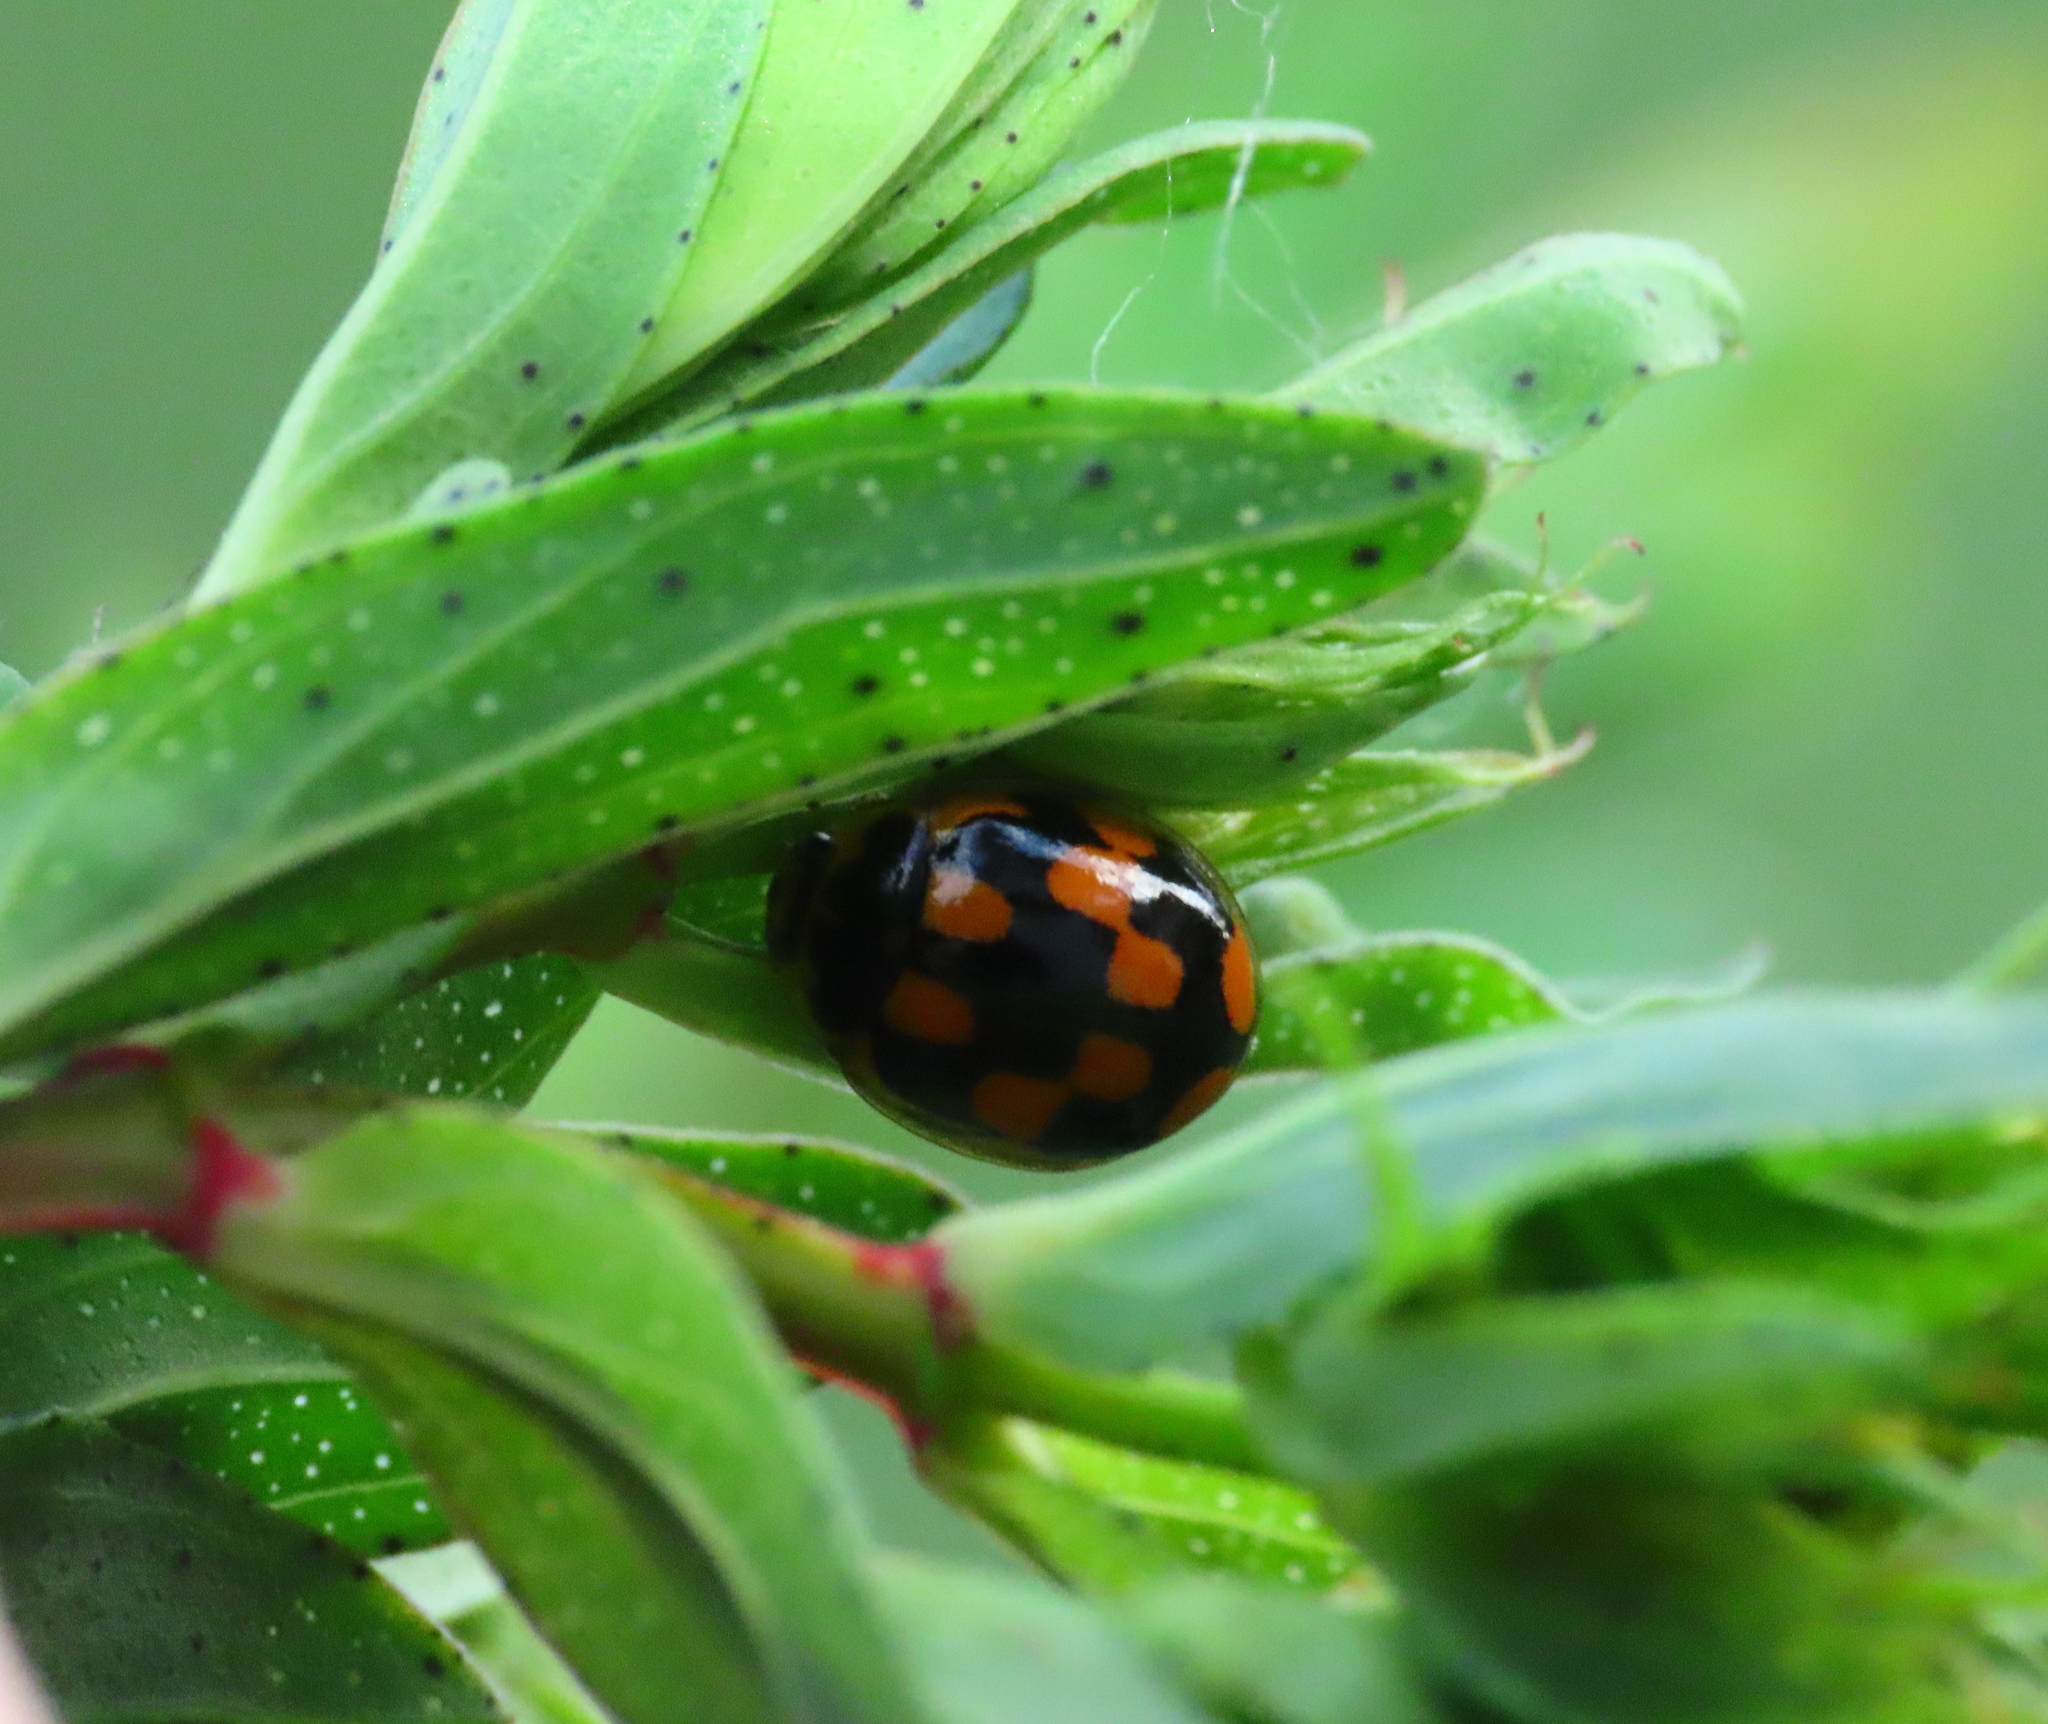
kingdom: Animalia
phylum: Arthropoda
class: Insecta
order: Coleoptera
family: Coccinellidae
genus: Propylaea
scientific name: Propylaea quatuordecimpunctata
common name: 14-spotted ladybird beetle
